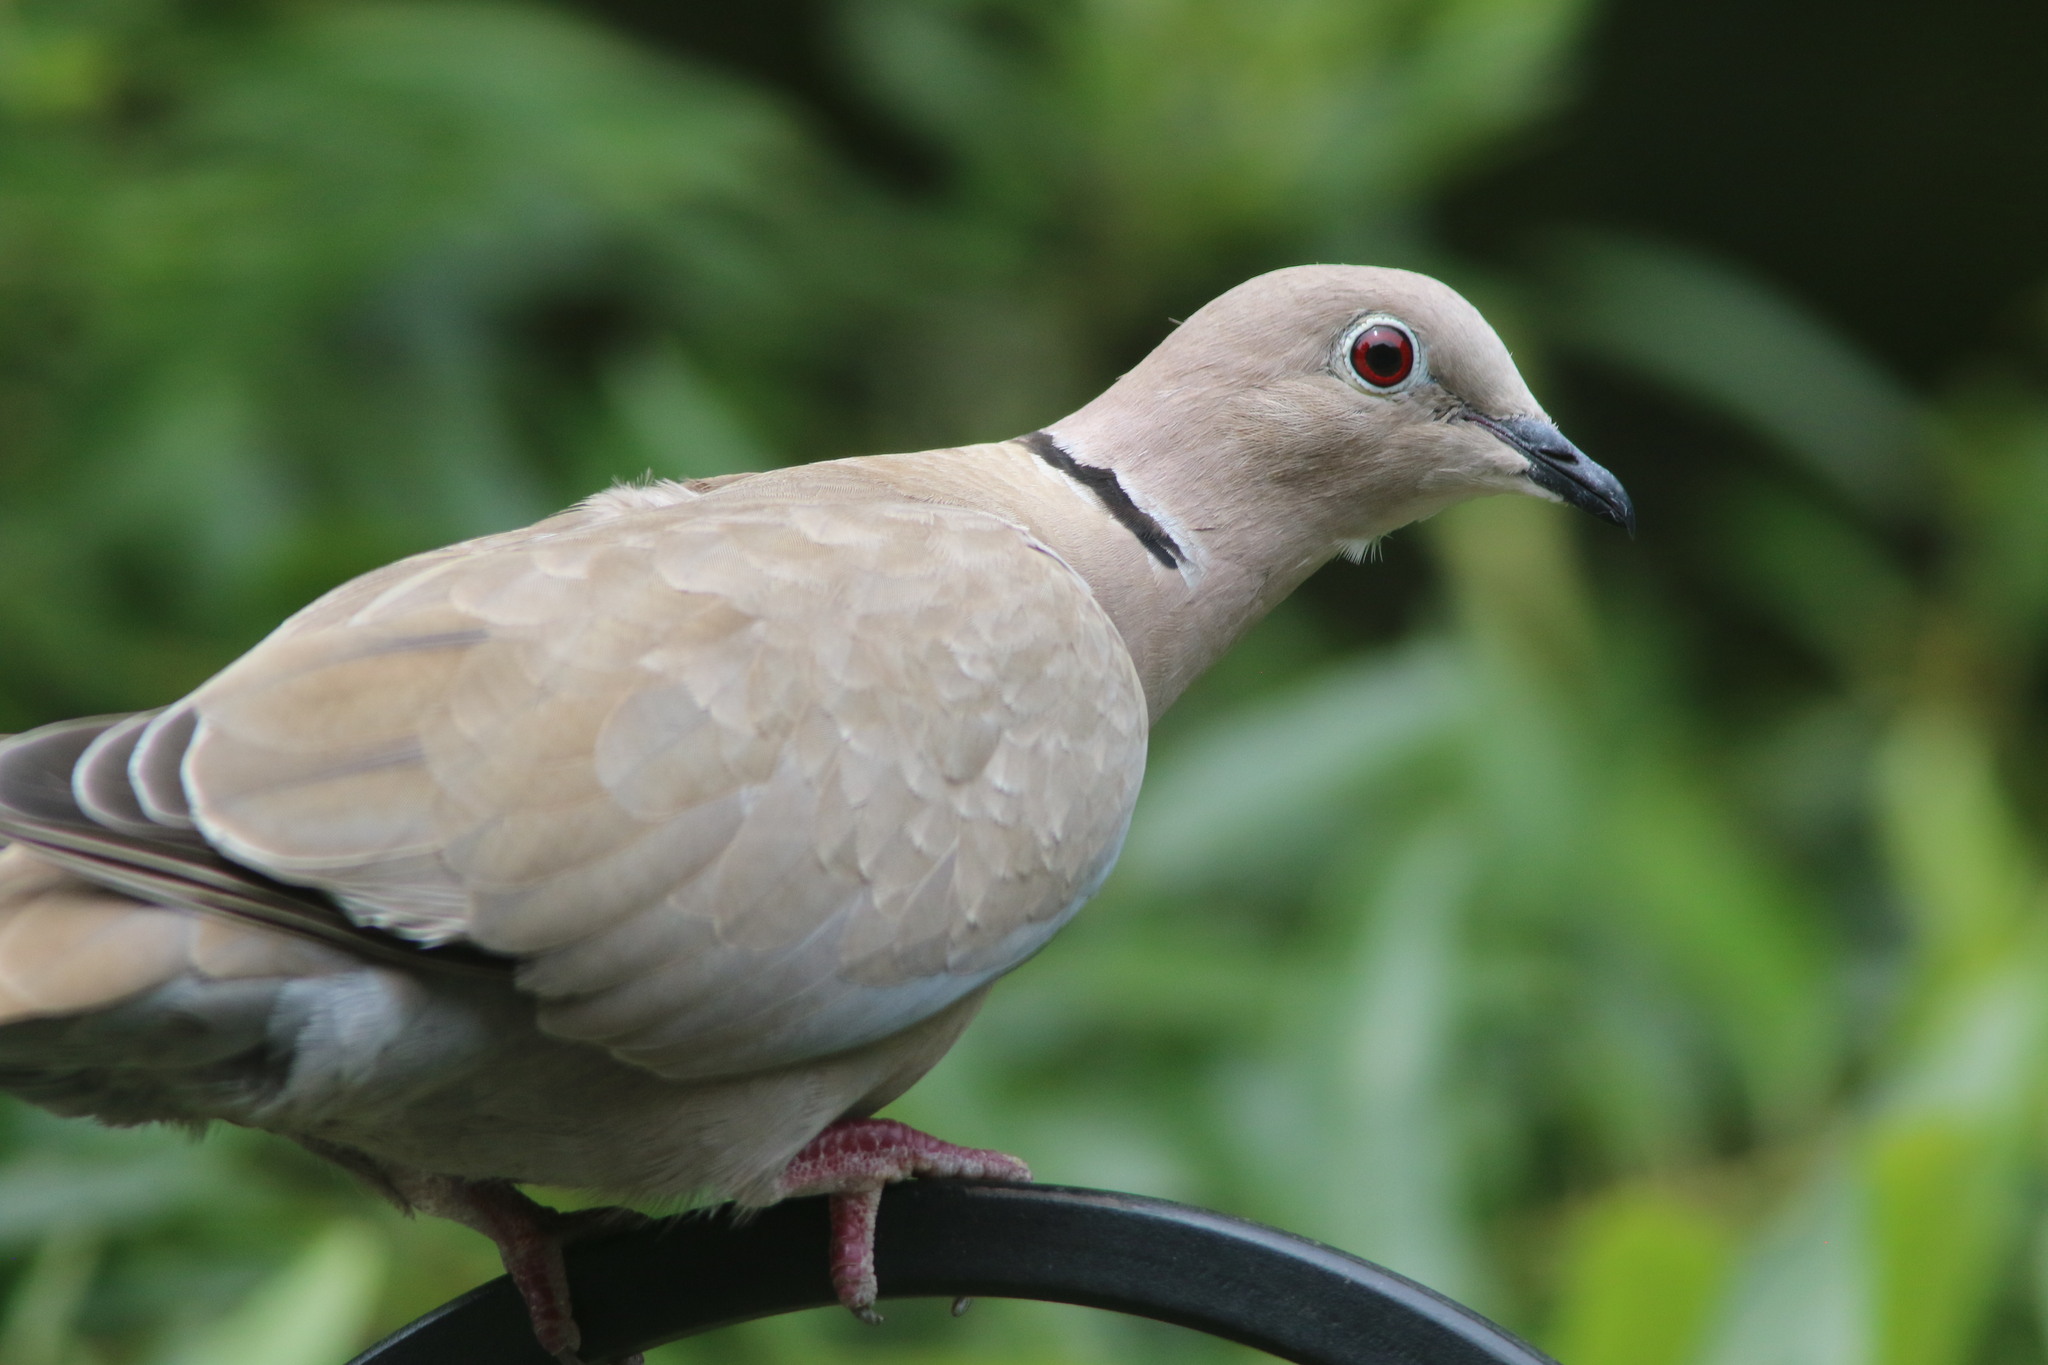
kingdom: Animalia
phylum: Chordata
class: Aves
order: Columbiformes
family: Columbidae
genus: Streptopelia
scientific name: Streptopelia decaocto
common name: Eurasian collared dove
